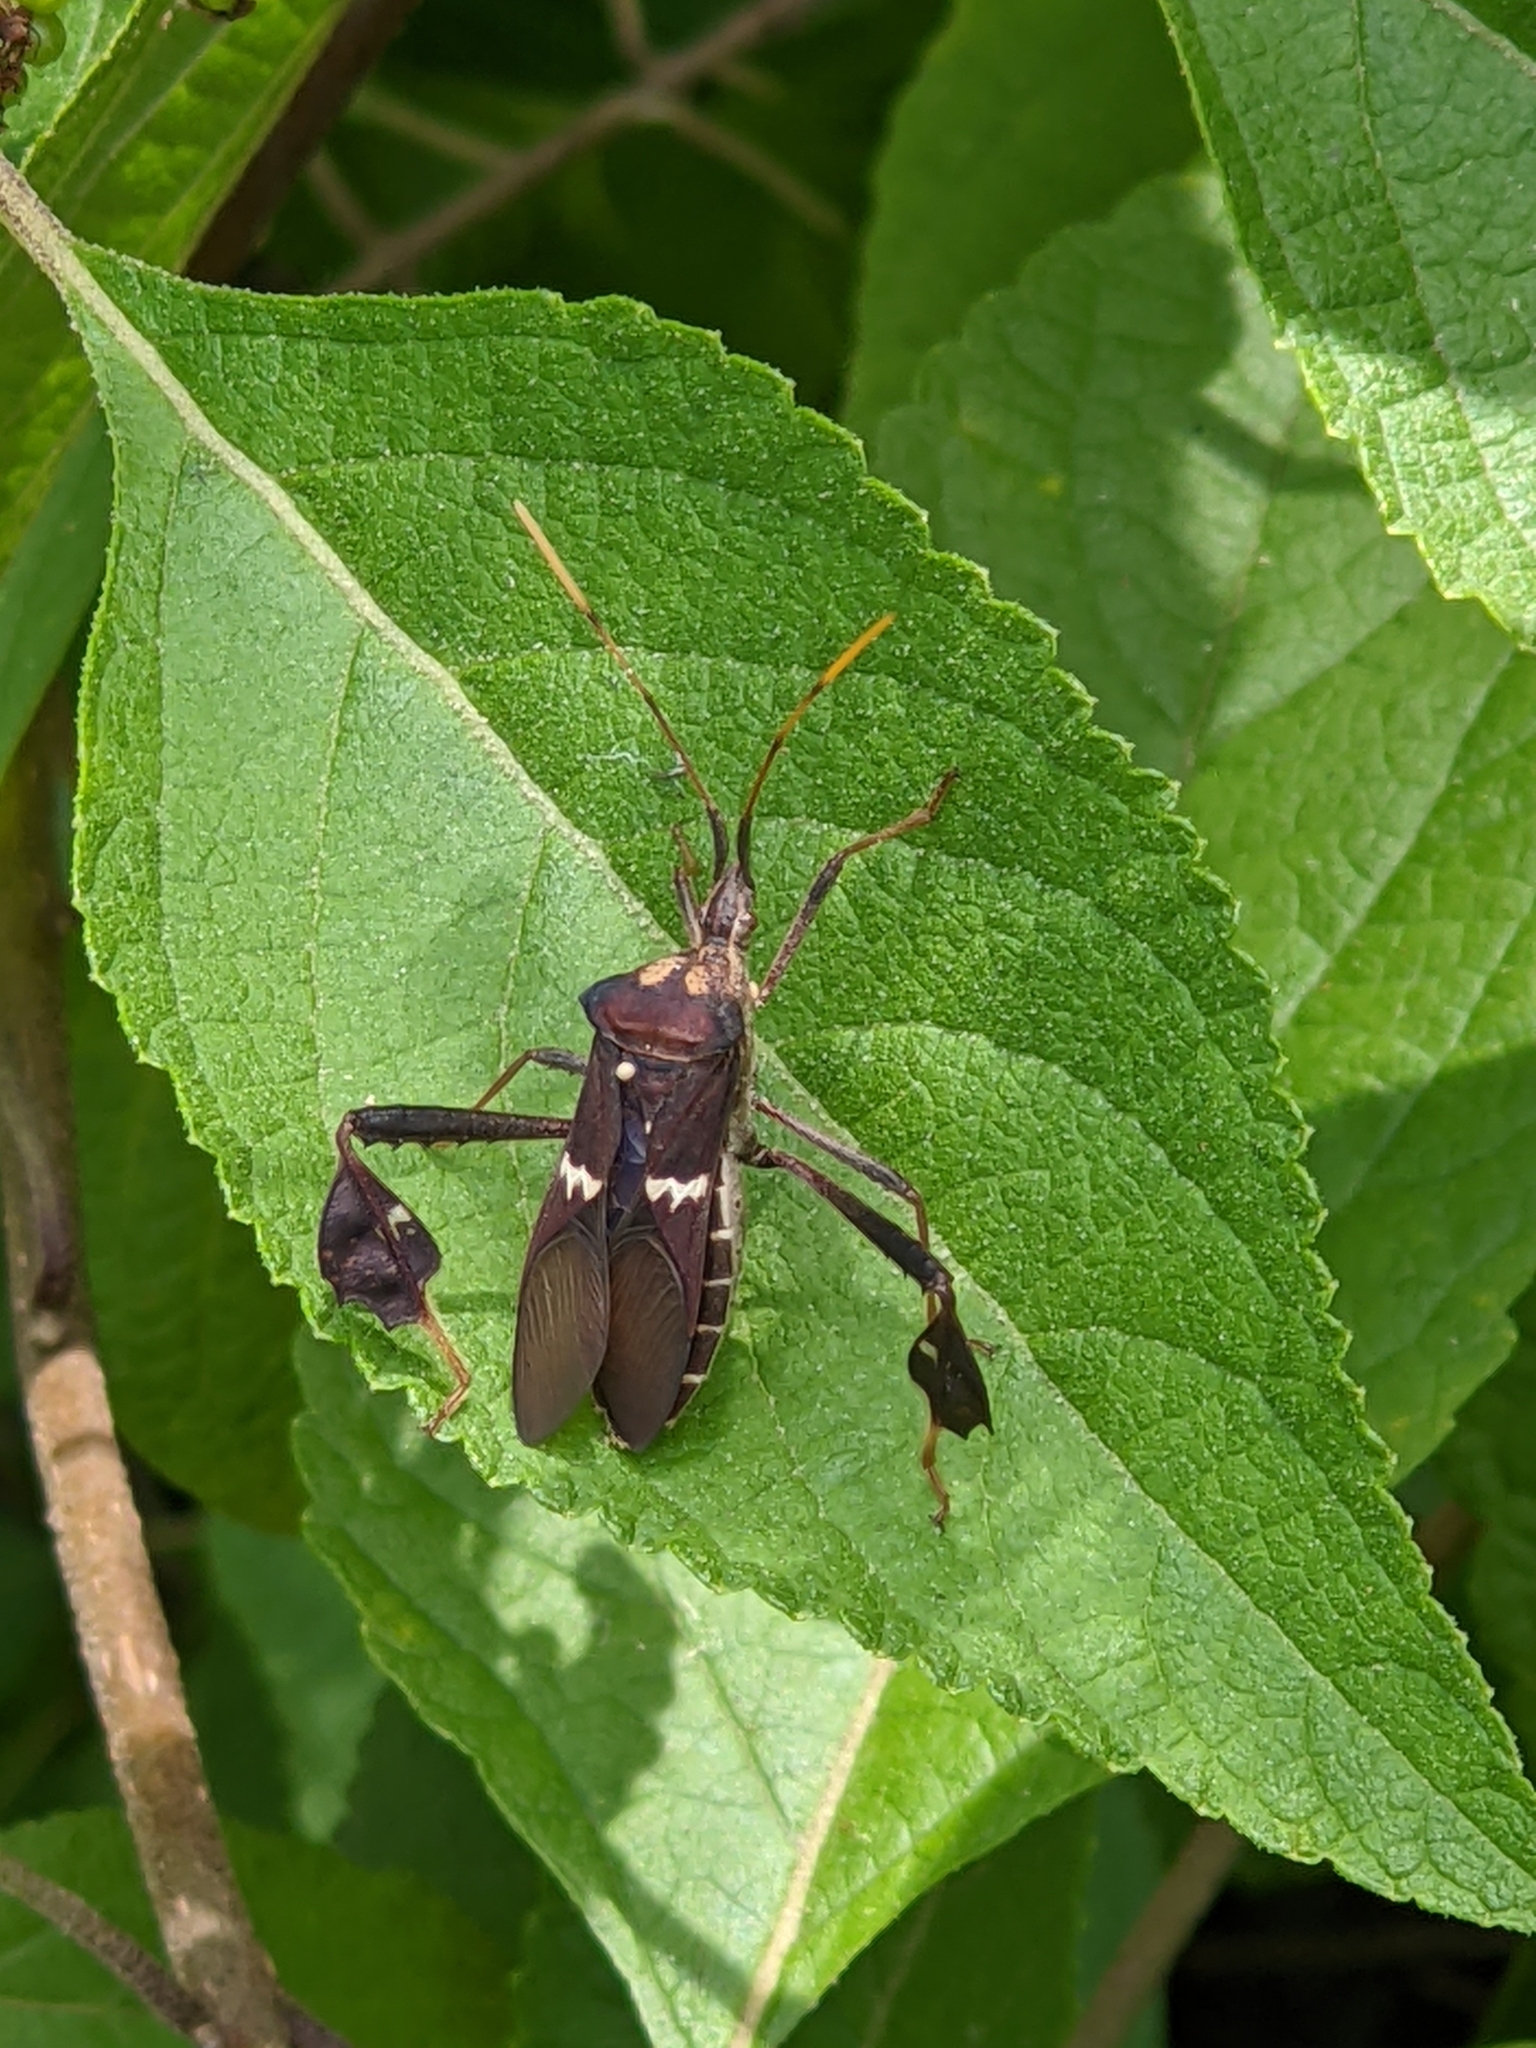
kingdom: Animalia
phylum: Arthropoda
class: Insecta
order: Hemiptera
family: Coreidae
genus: Leptoglossus
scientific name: Leptoglossus zonatus
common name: Large-legged bug
